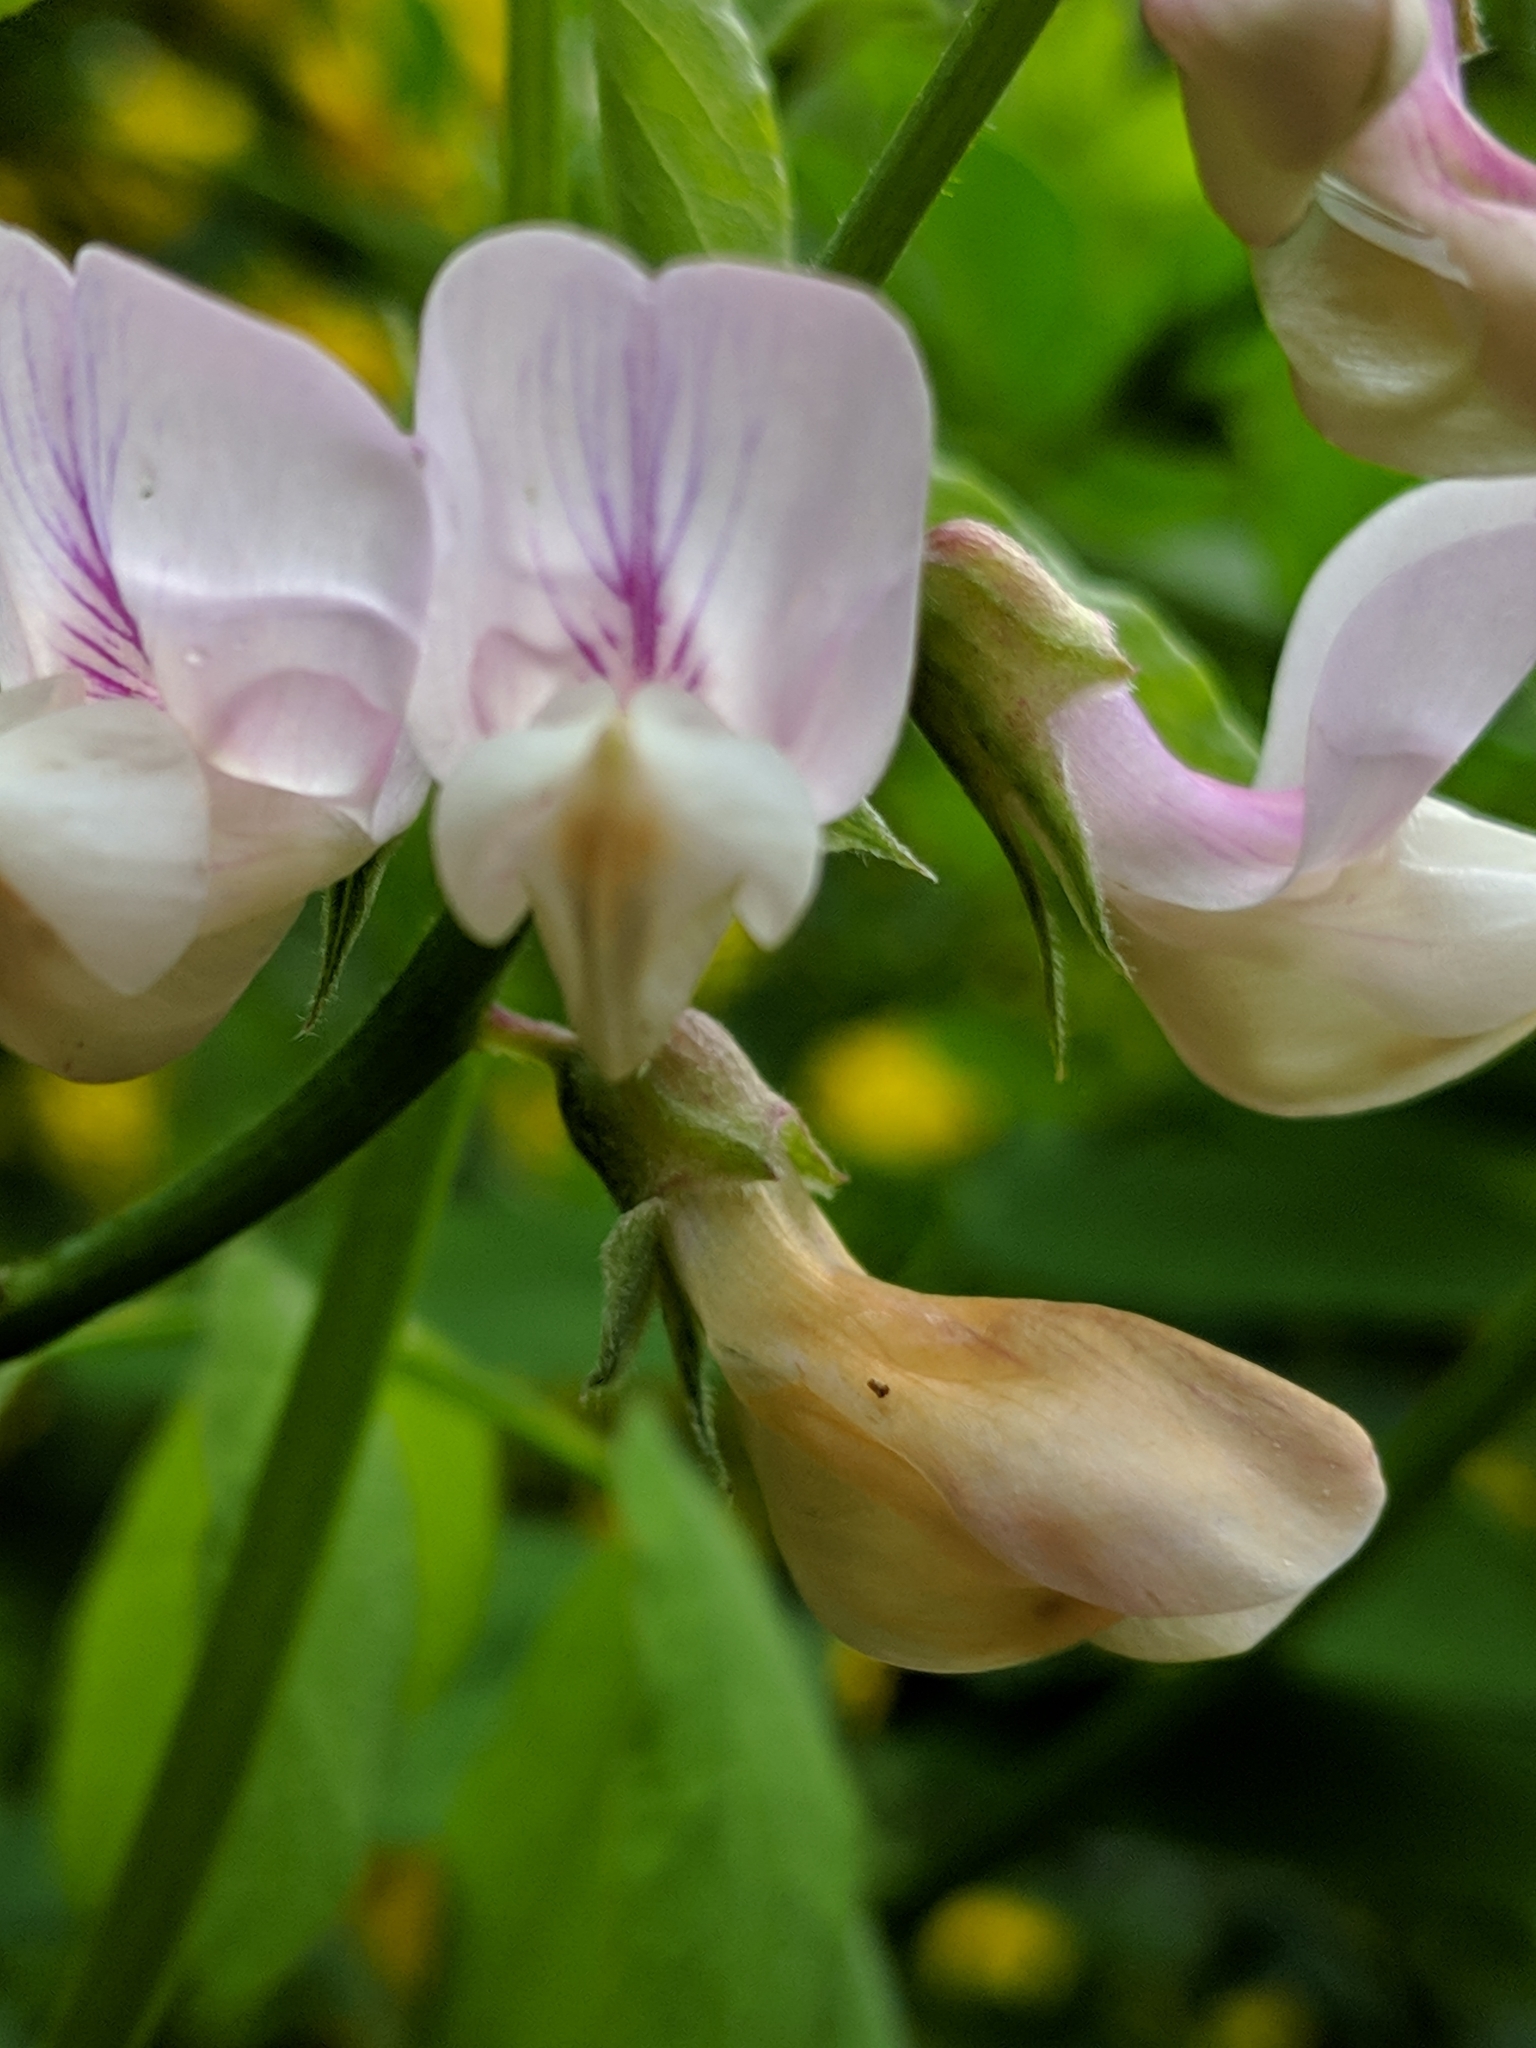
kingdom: Plantae
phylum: Tracheophyta
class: Magnoliopsida
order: Fabales
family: Fabaceae
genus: Lathyrus
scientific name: Lathyrus vestitus
